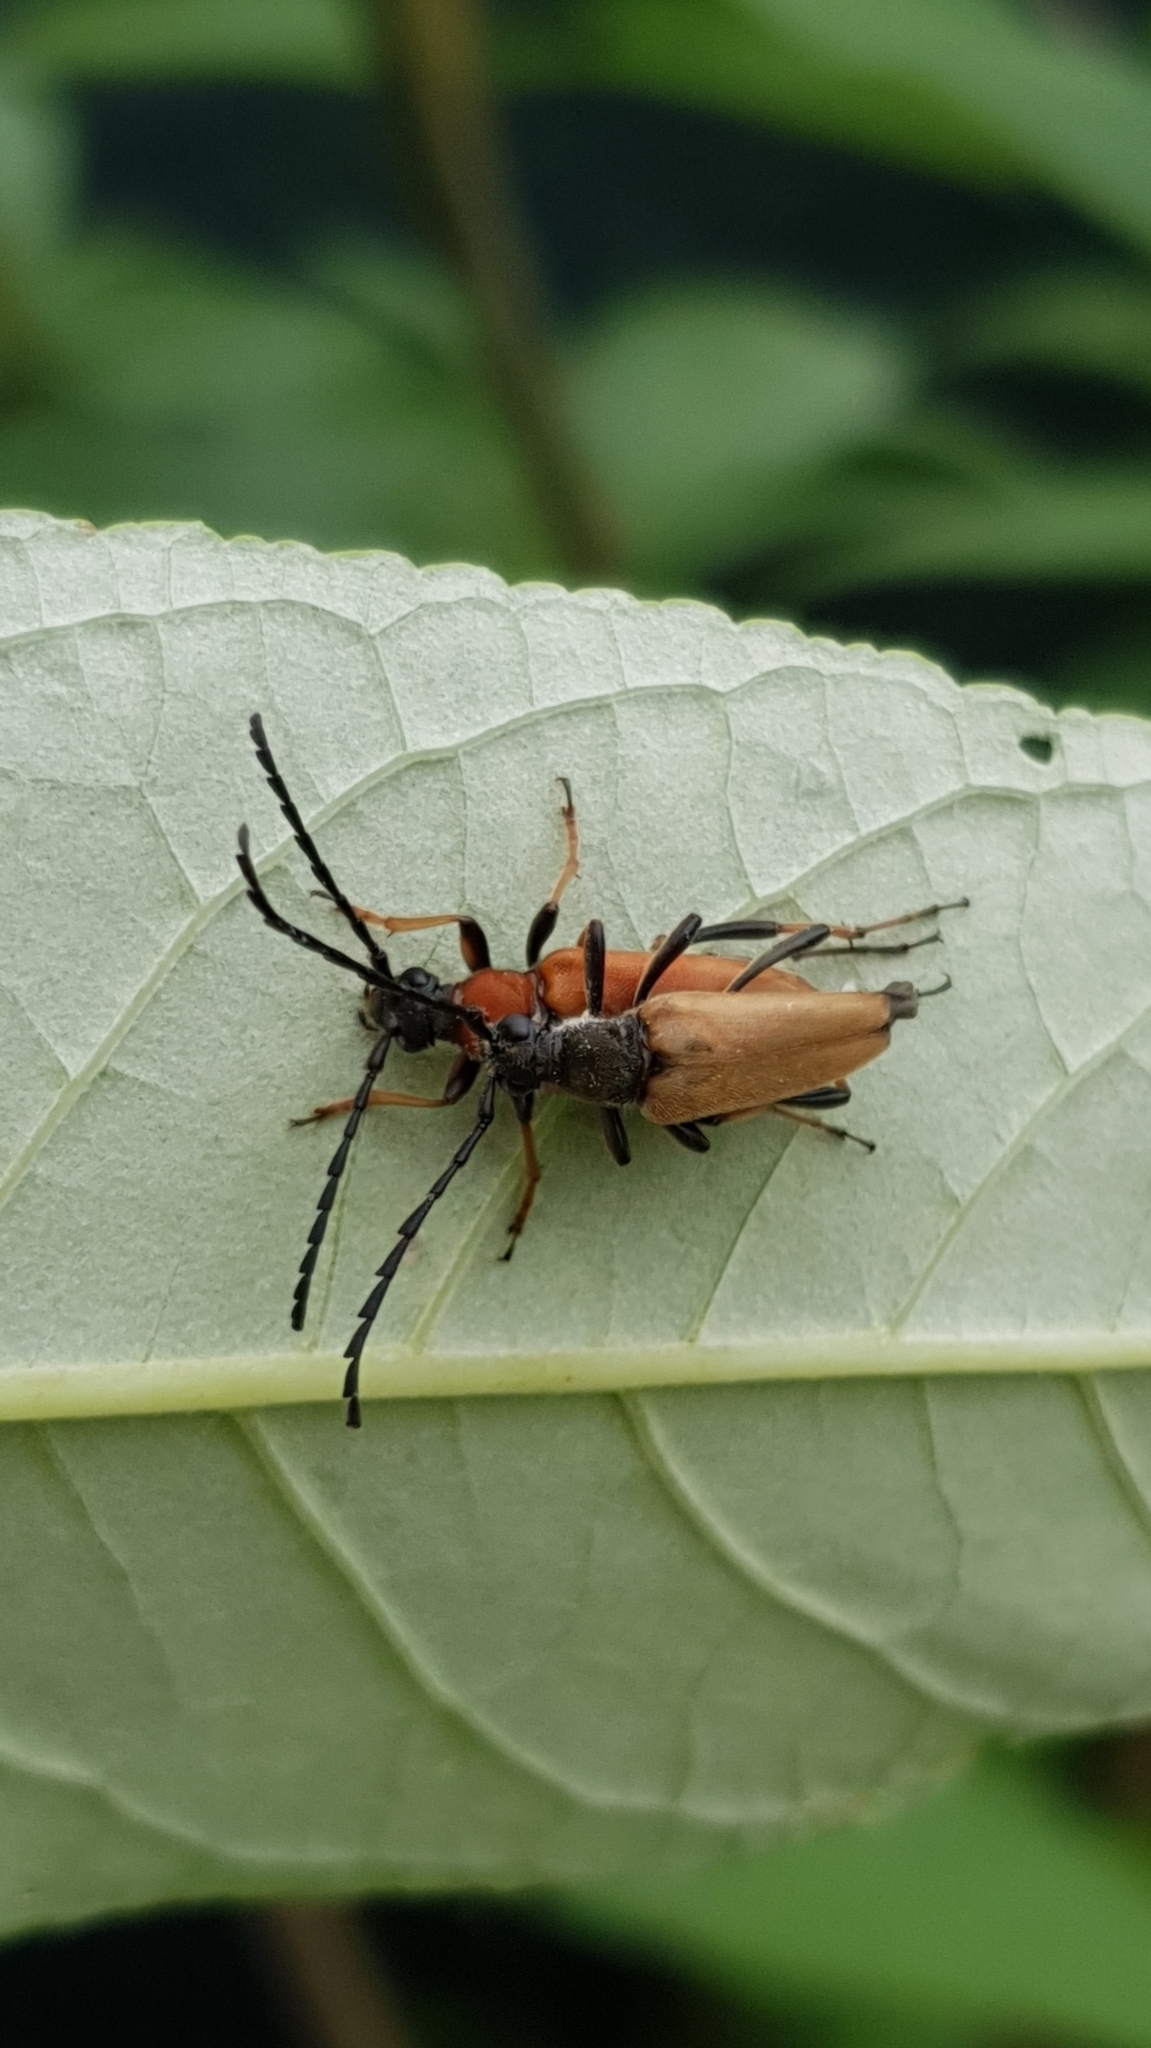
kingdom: Animalia
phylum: Arthropoda
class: Insecta
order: Coleoptera
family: Cerambycidae
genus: Stictoleptura
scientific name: Stictoleptura rubra
